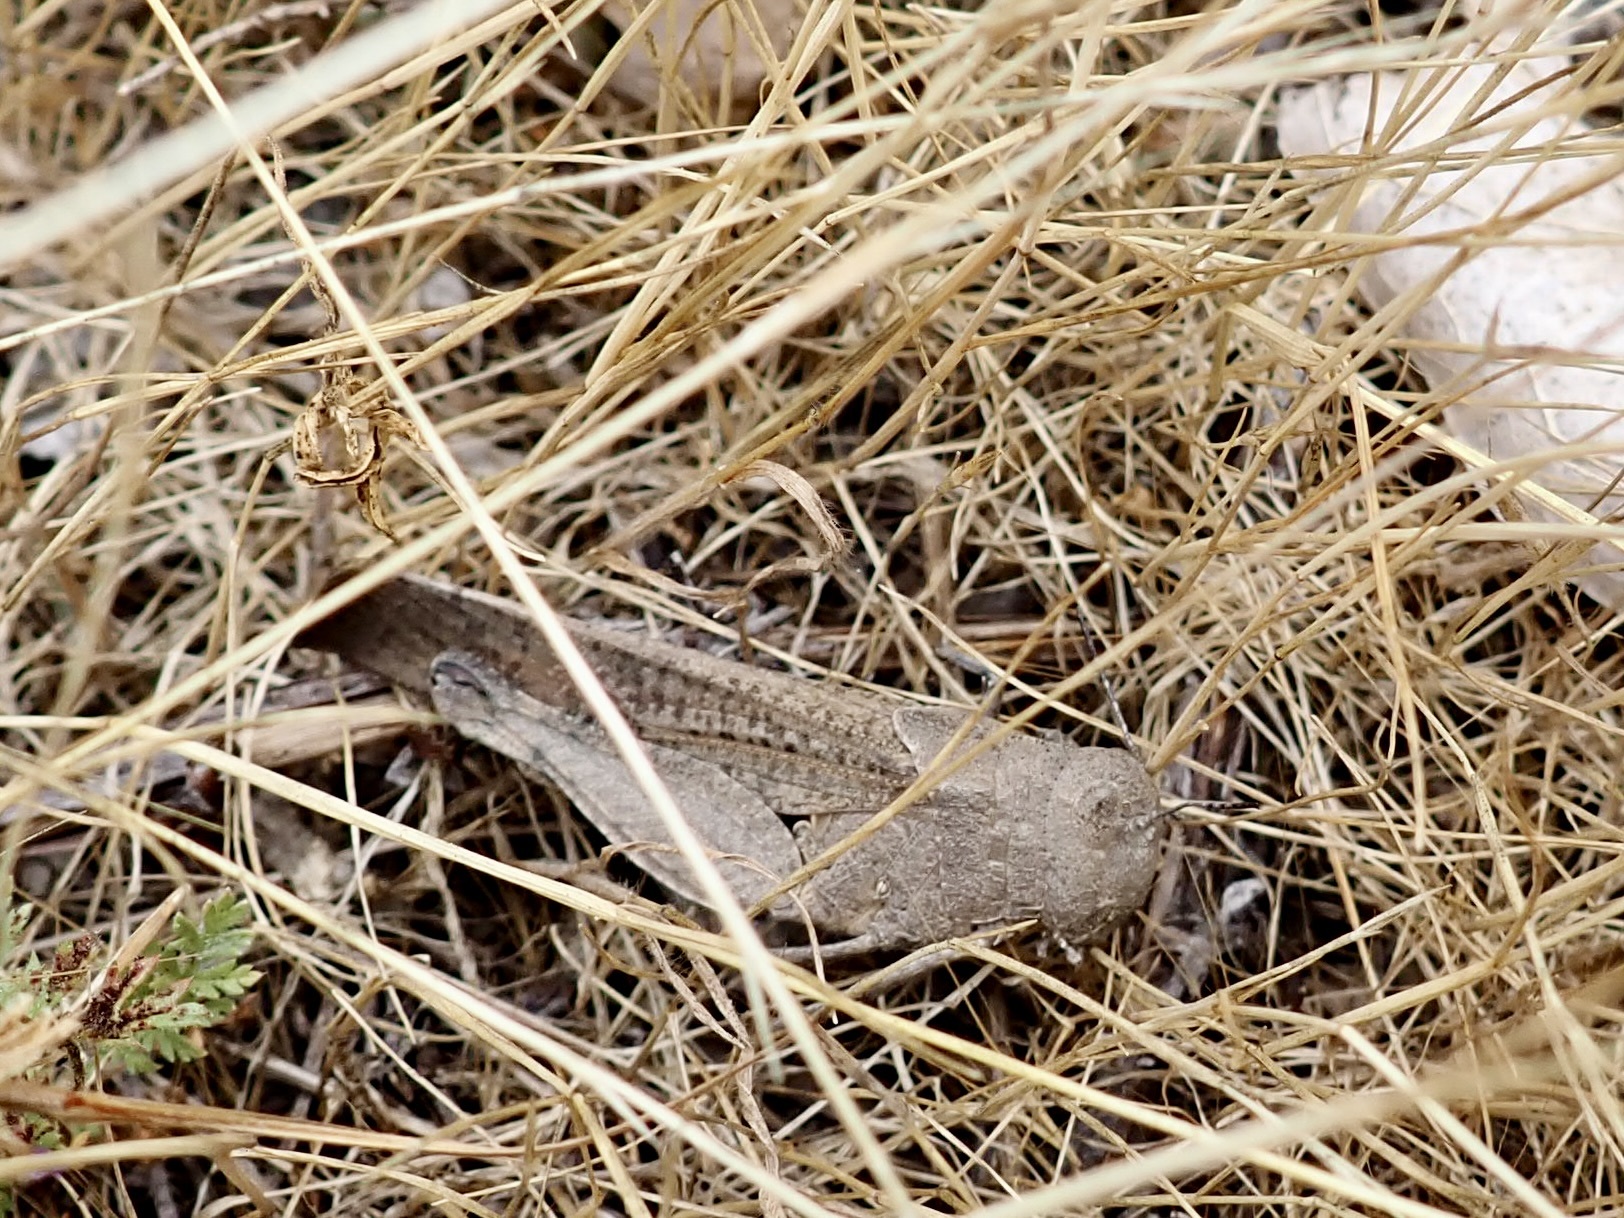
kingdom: Animalia
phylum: Arthropoda
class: Insecta
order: Orthoptera
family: Acrididae
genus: Arphia
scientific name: Arphia ramona
